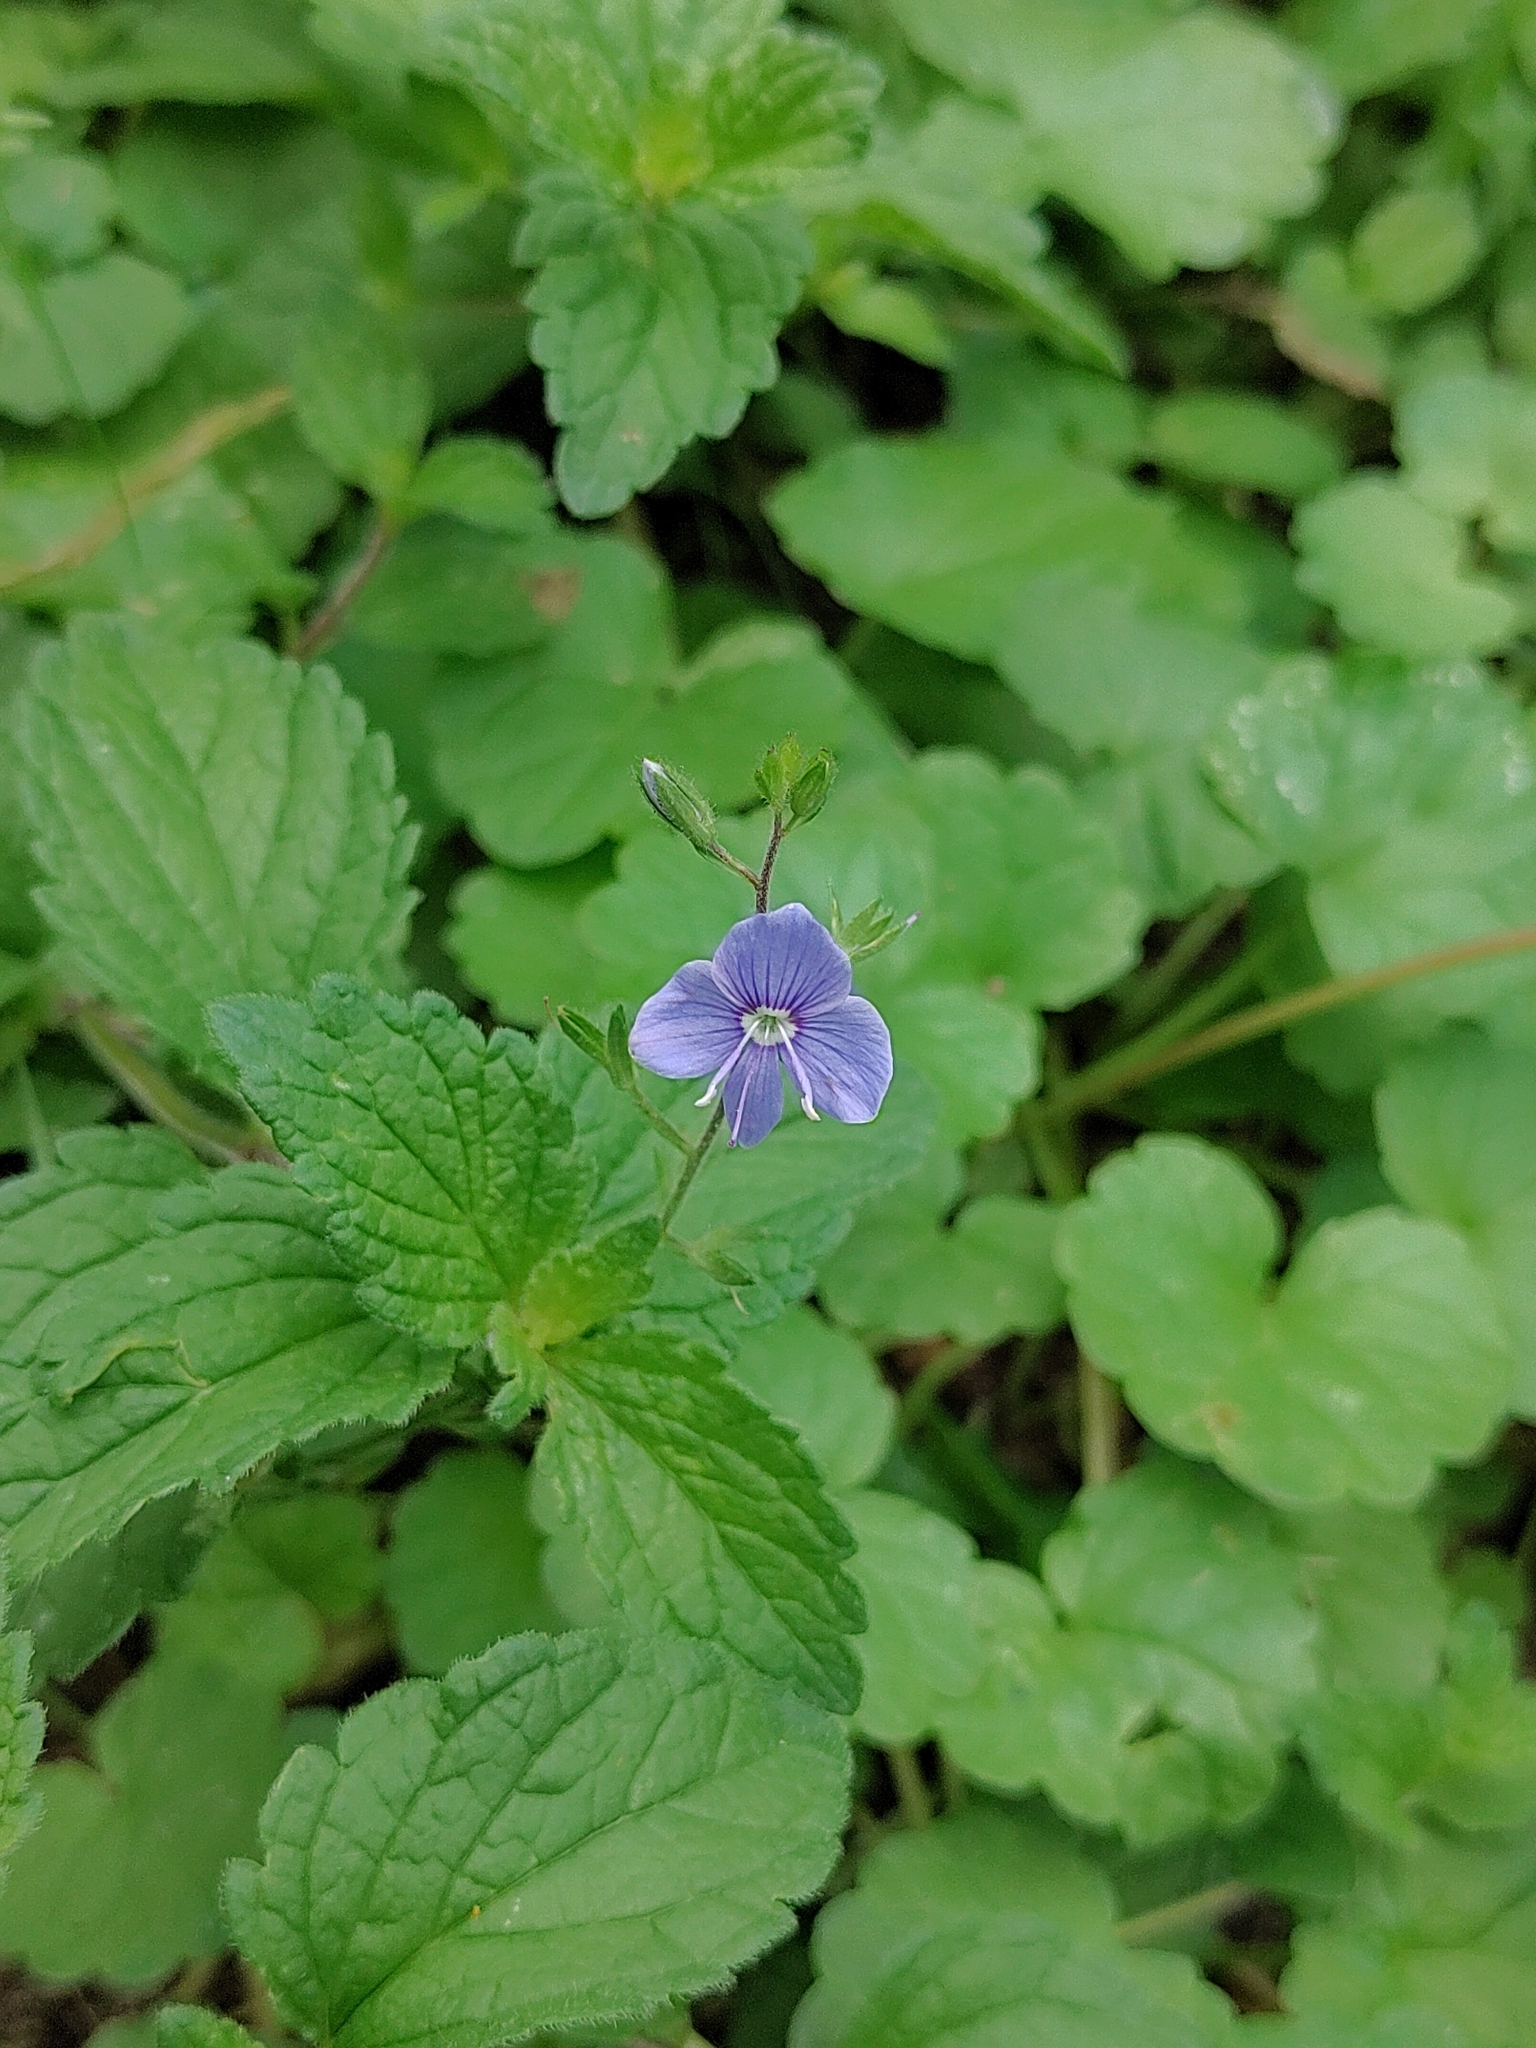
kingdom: Plantae
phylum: Tracheophyta
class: Magnoliopsida
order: Lamiales
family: Plantaginaceae
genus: Veronica
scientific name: Veronica chamaedrys
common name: Germander speedwell
